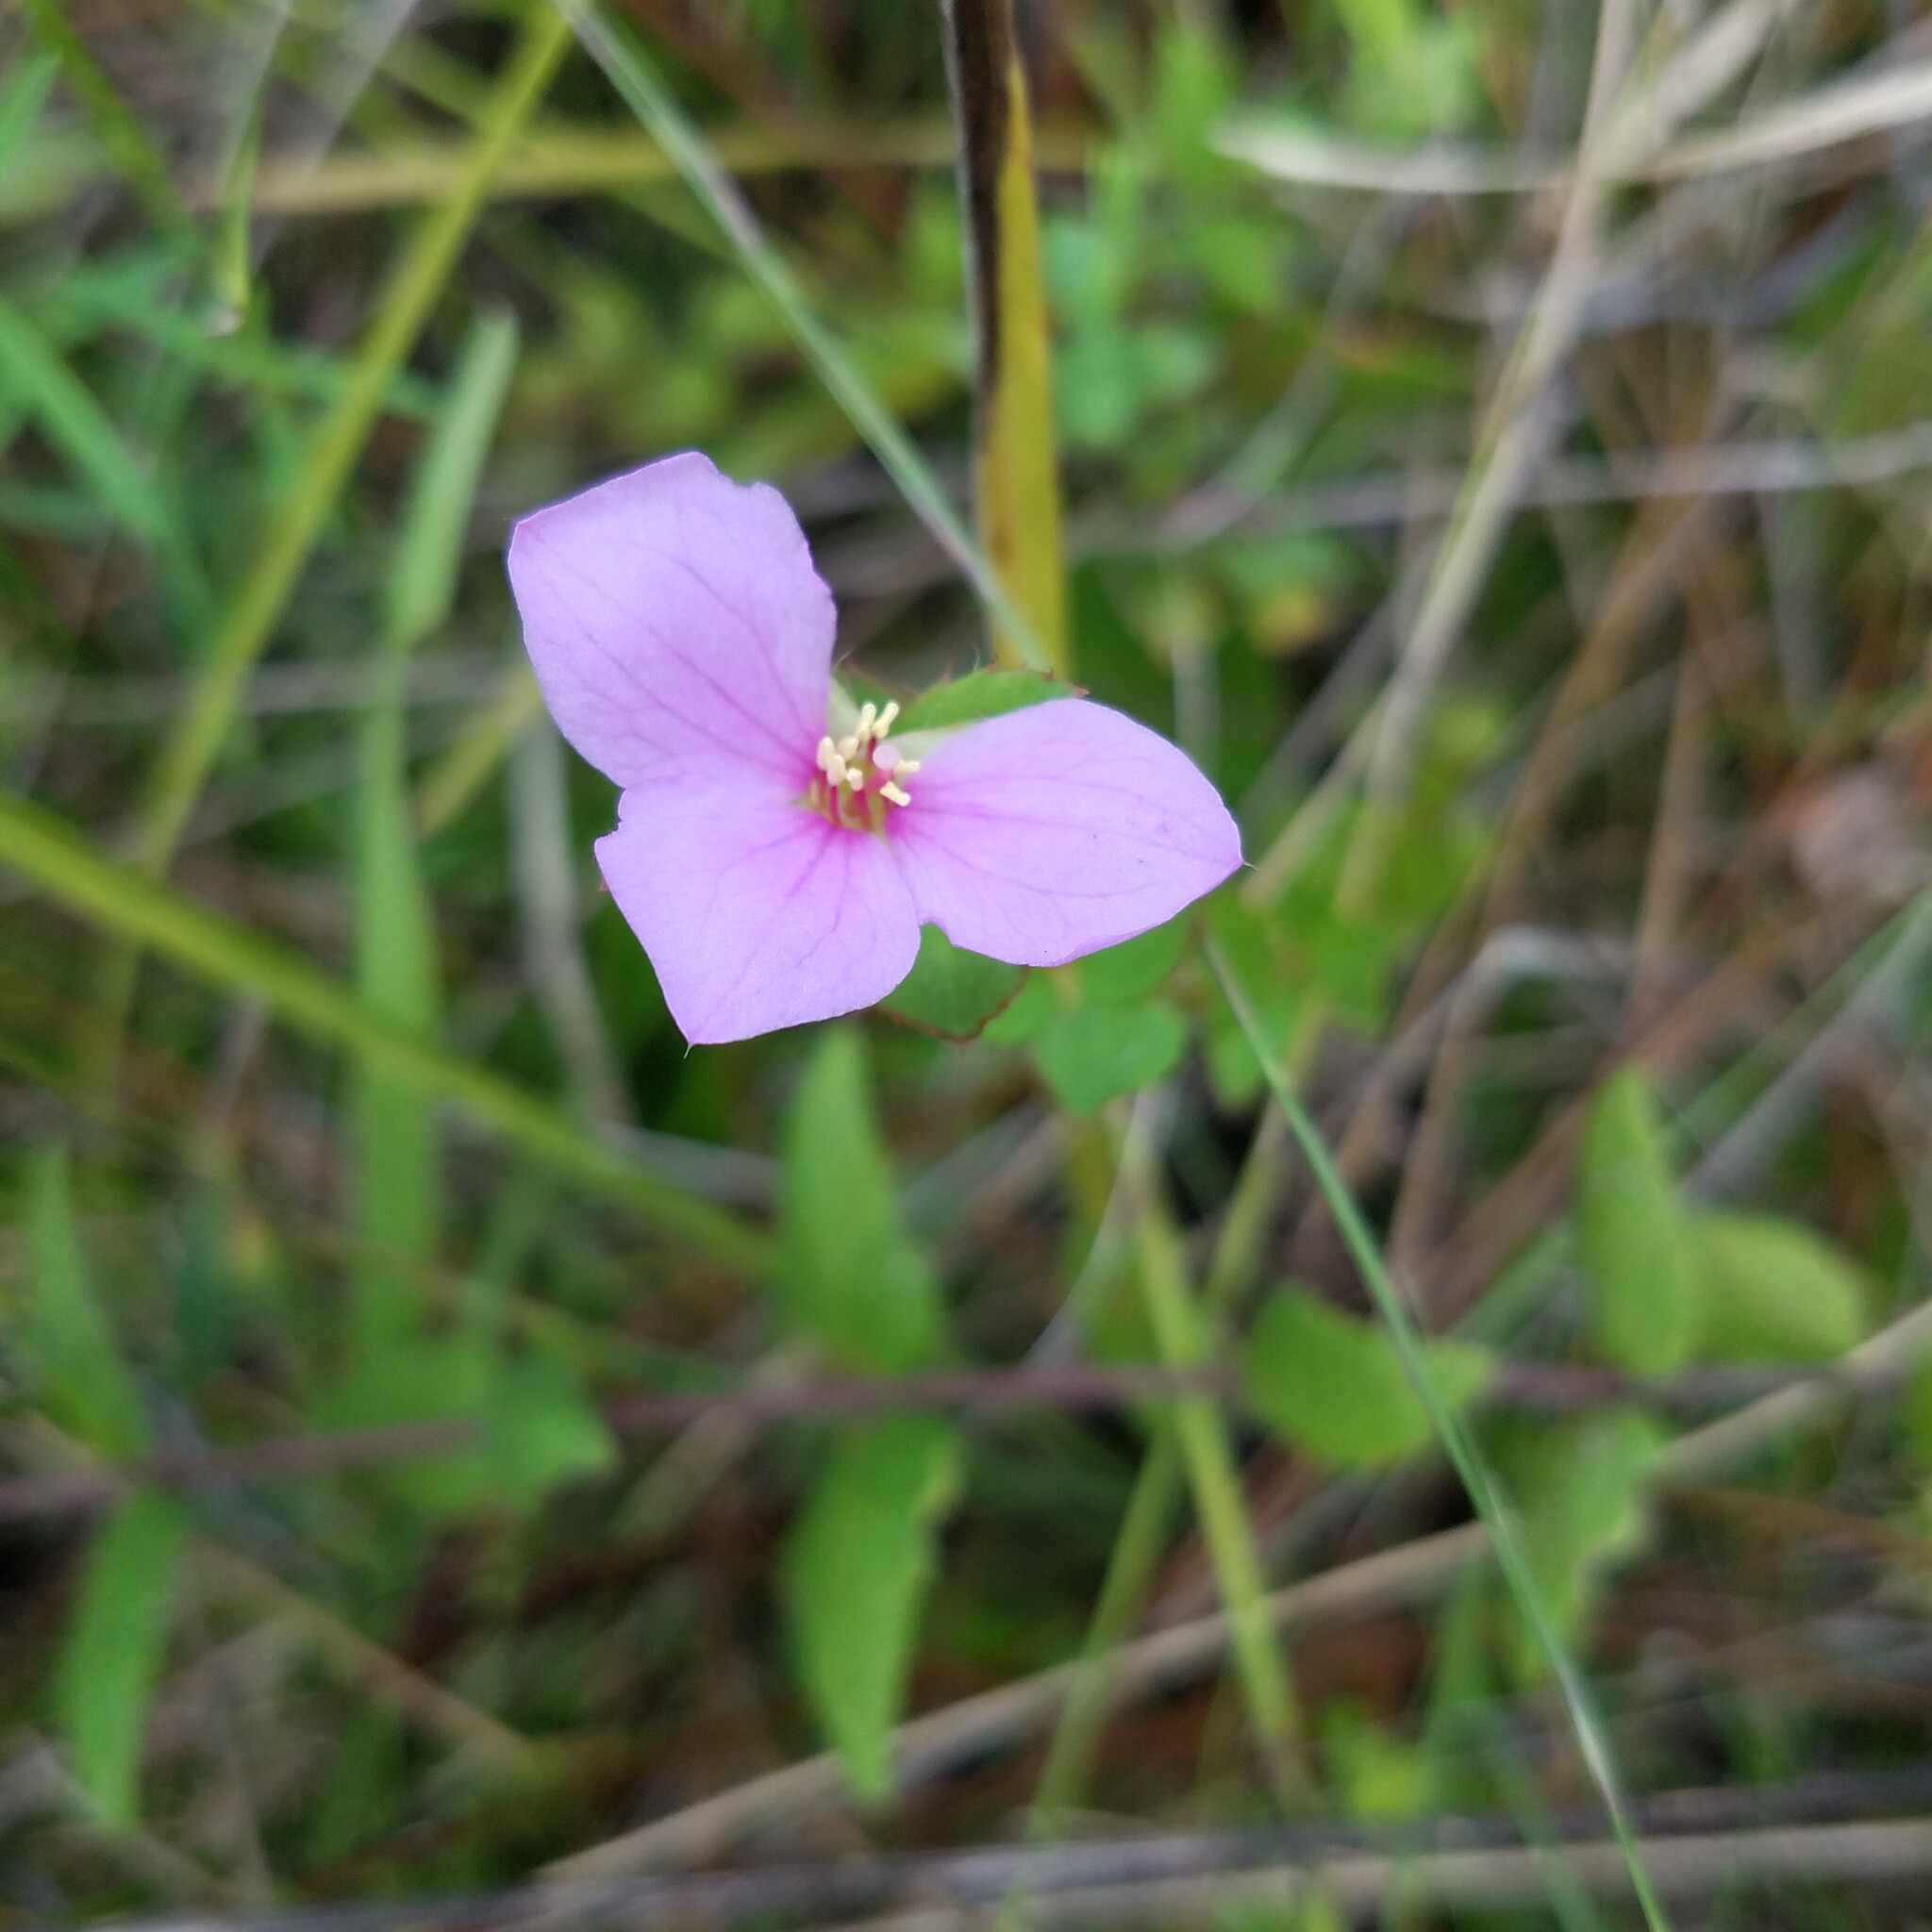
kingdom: Plantae
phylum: Tracheophyta
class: Magnoliopsida
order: Myrtales
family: Melastomataceae
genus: Rhexia
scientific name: Rhexia petiolata
